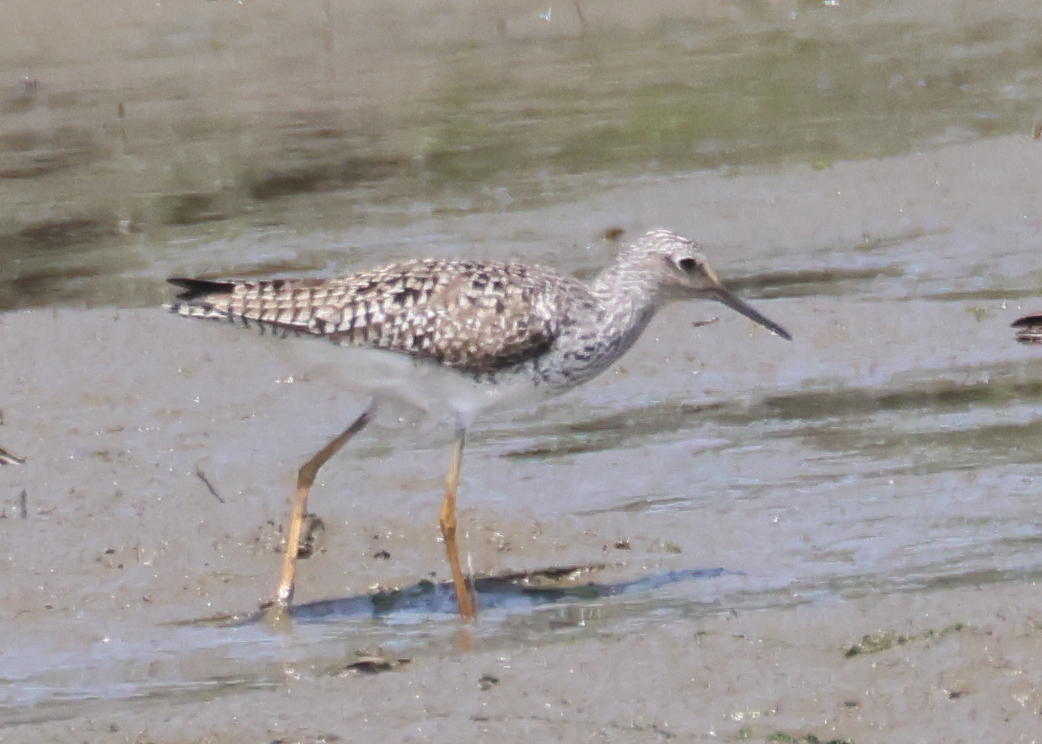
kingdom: Animalia
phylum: Chordata
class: Aves
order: Charadriiformes
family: Scolopacidae
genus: Tringa
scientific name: Tringa flavipes
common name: Lesser yellowlegs
